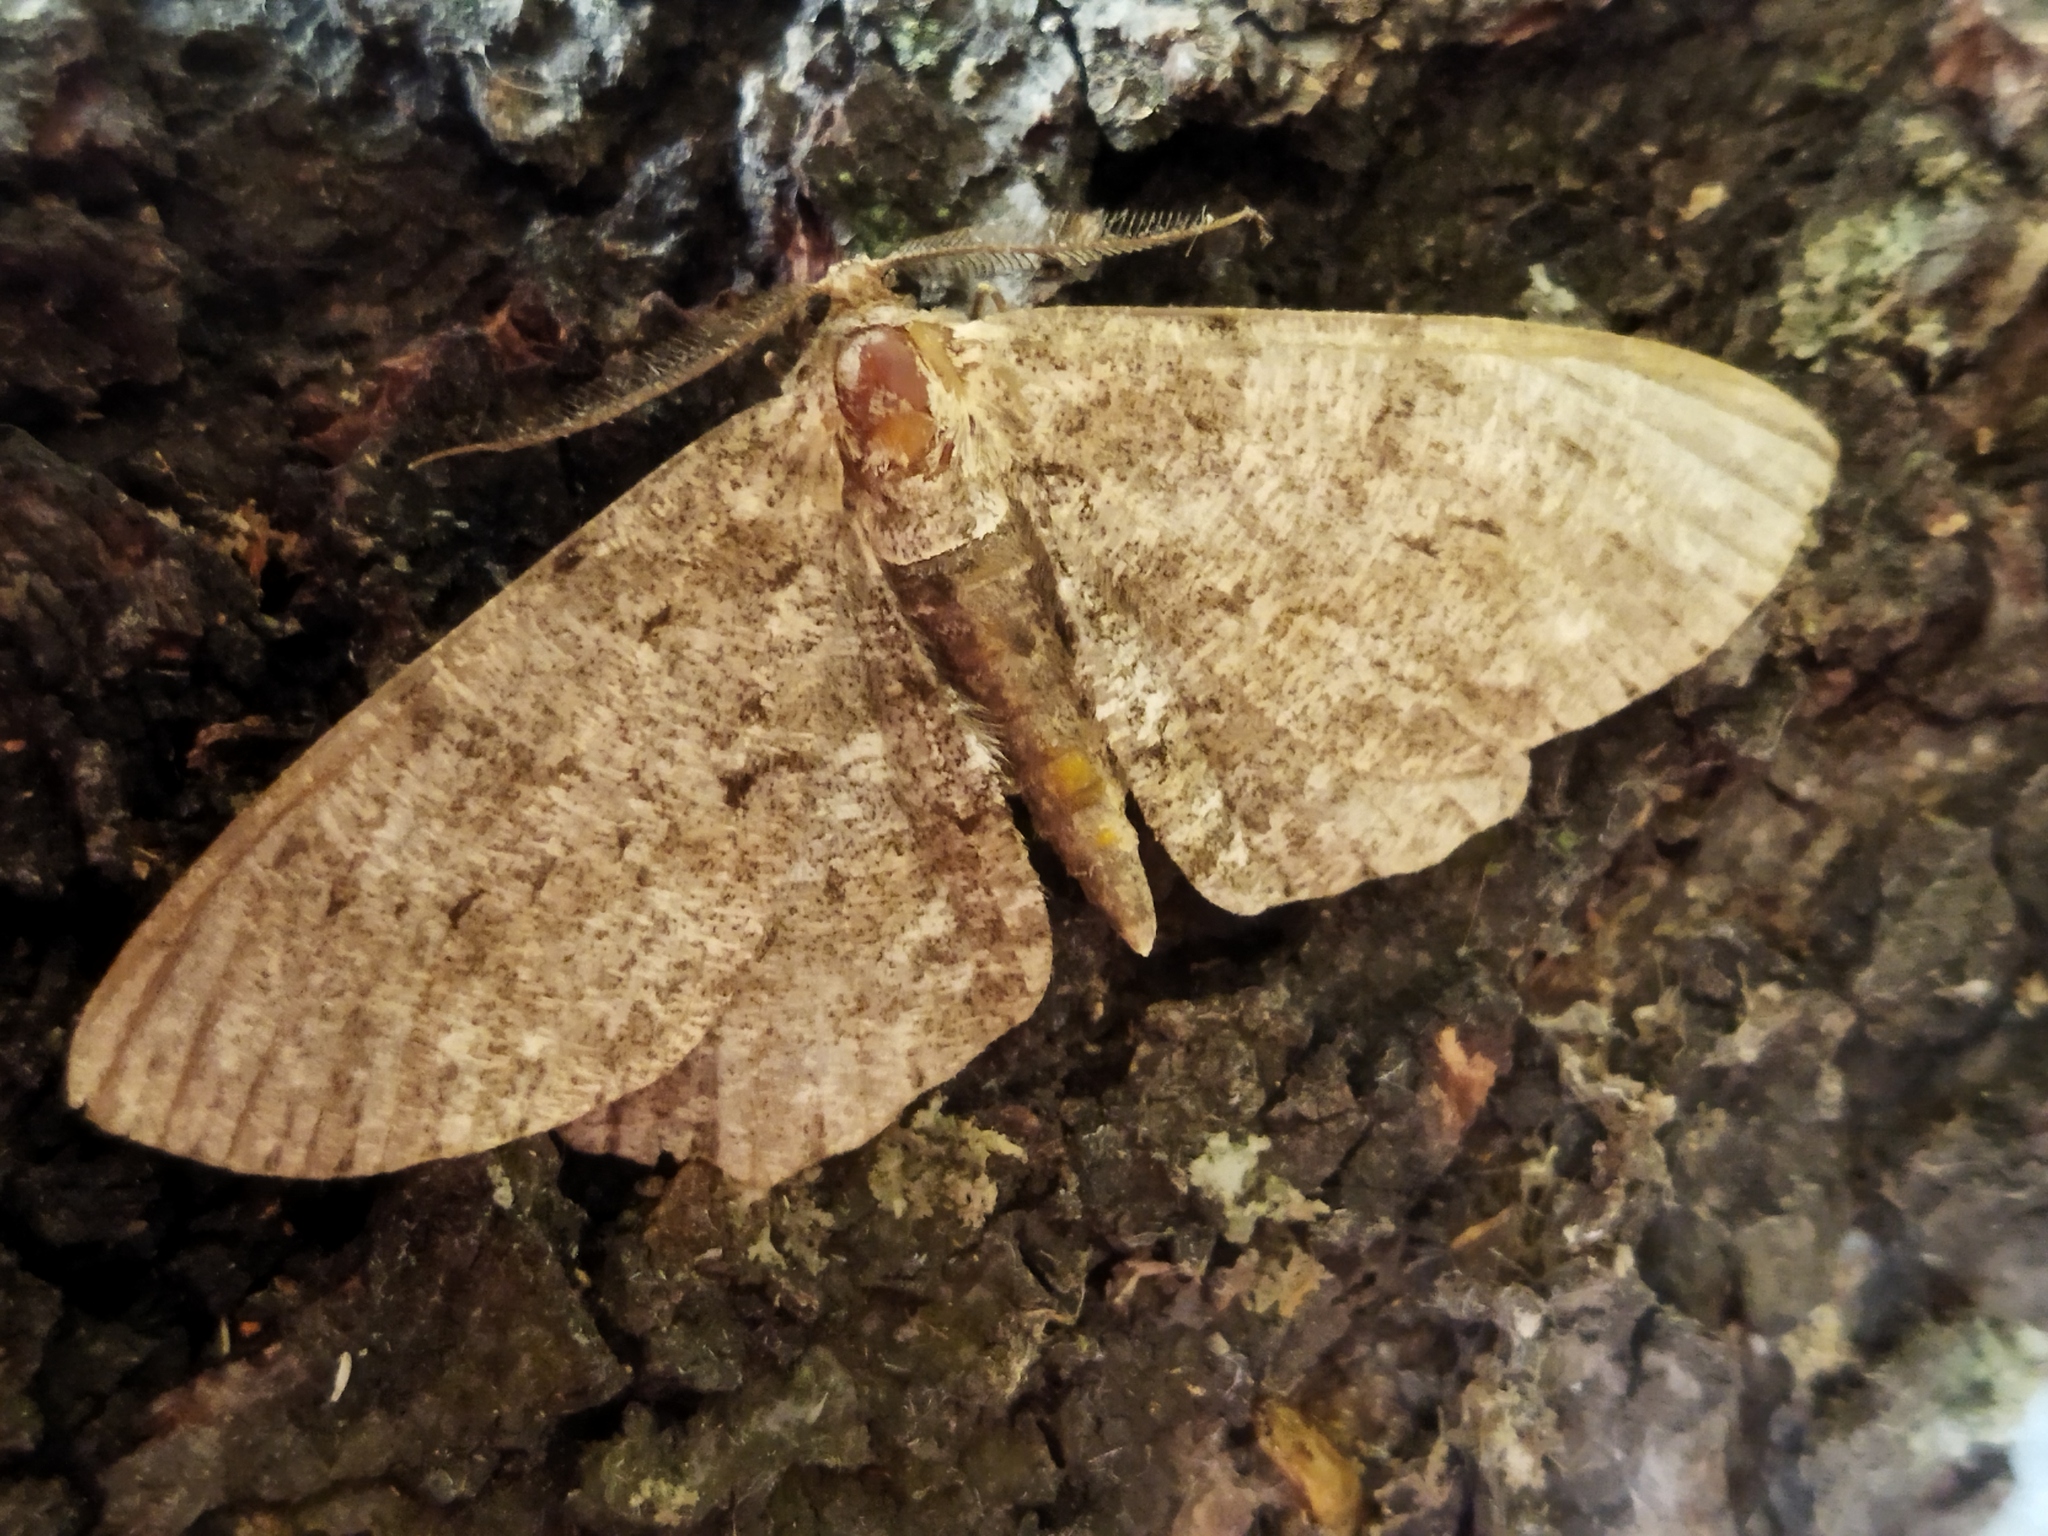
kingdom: Animalia
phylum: Arthropoda
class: Insecta
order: Lepidoptera
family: Geometridae
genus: Hypomecis
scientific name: Hypomecis punctinalis
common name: Pale oak beauty
